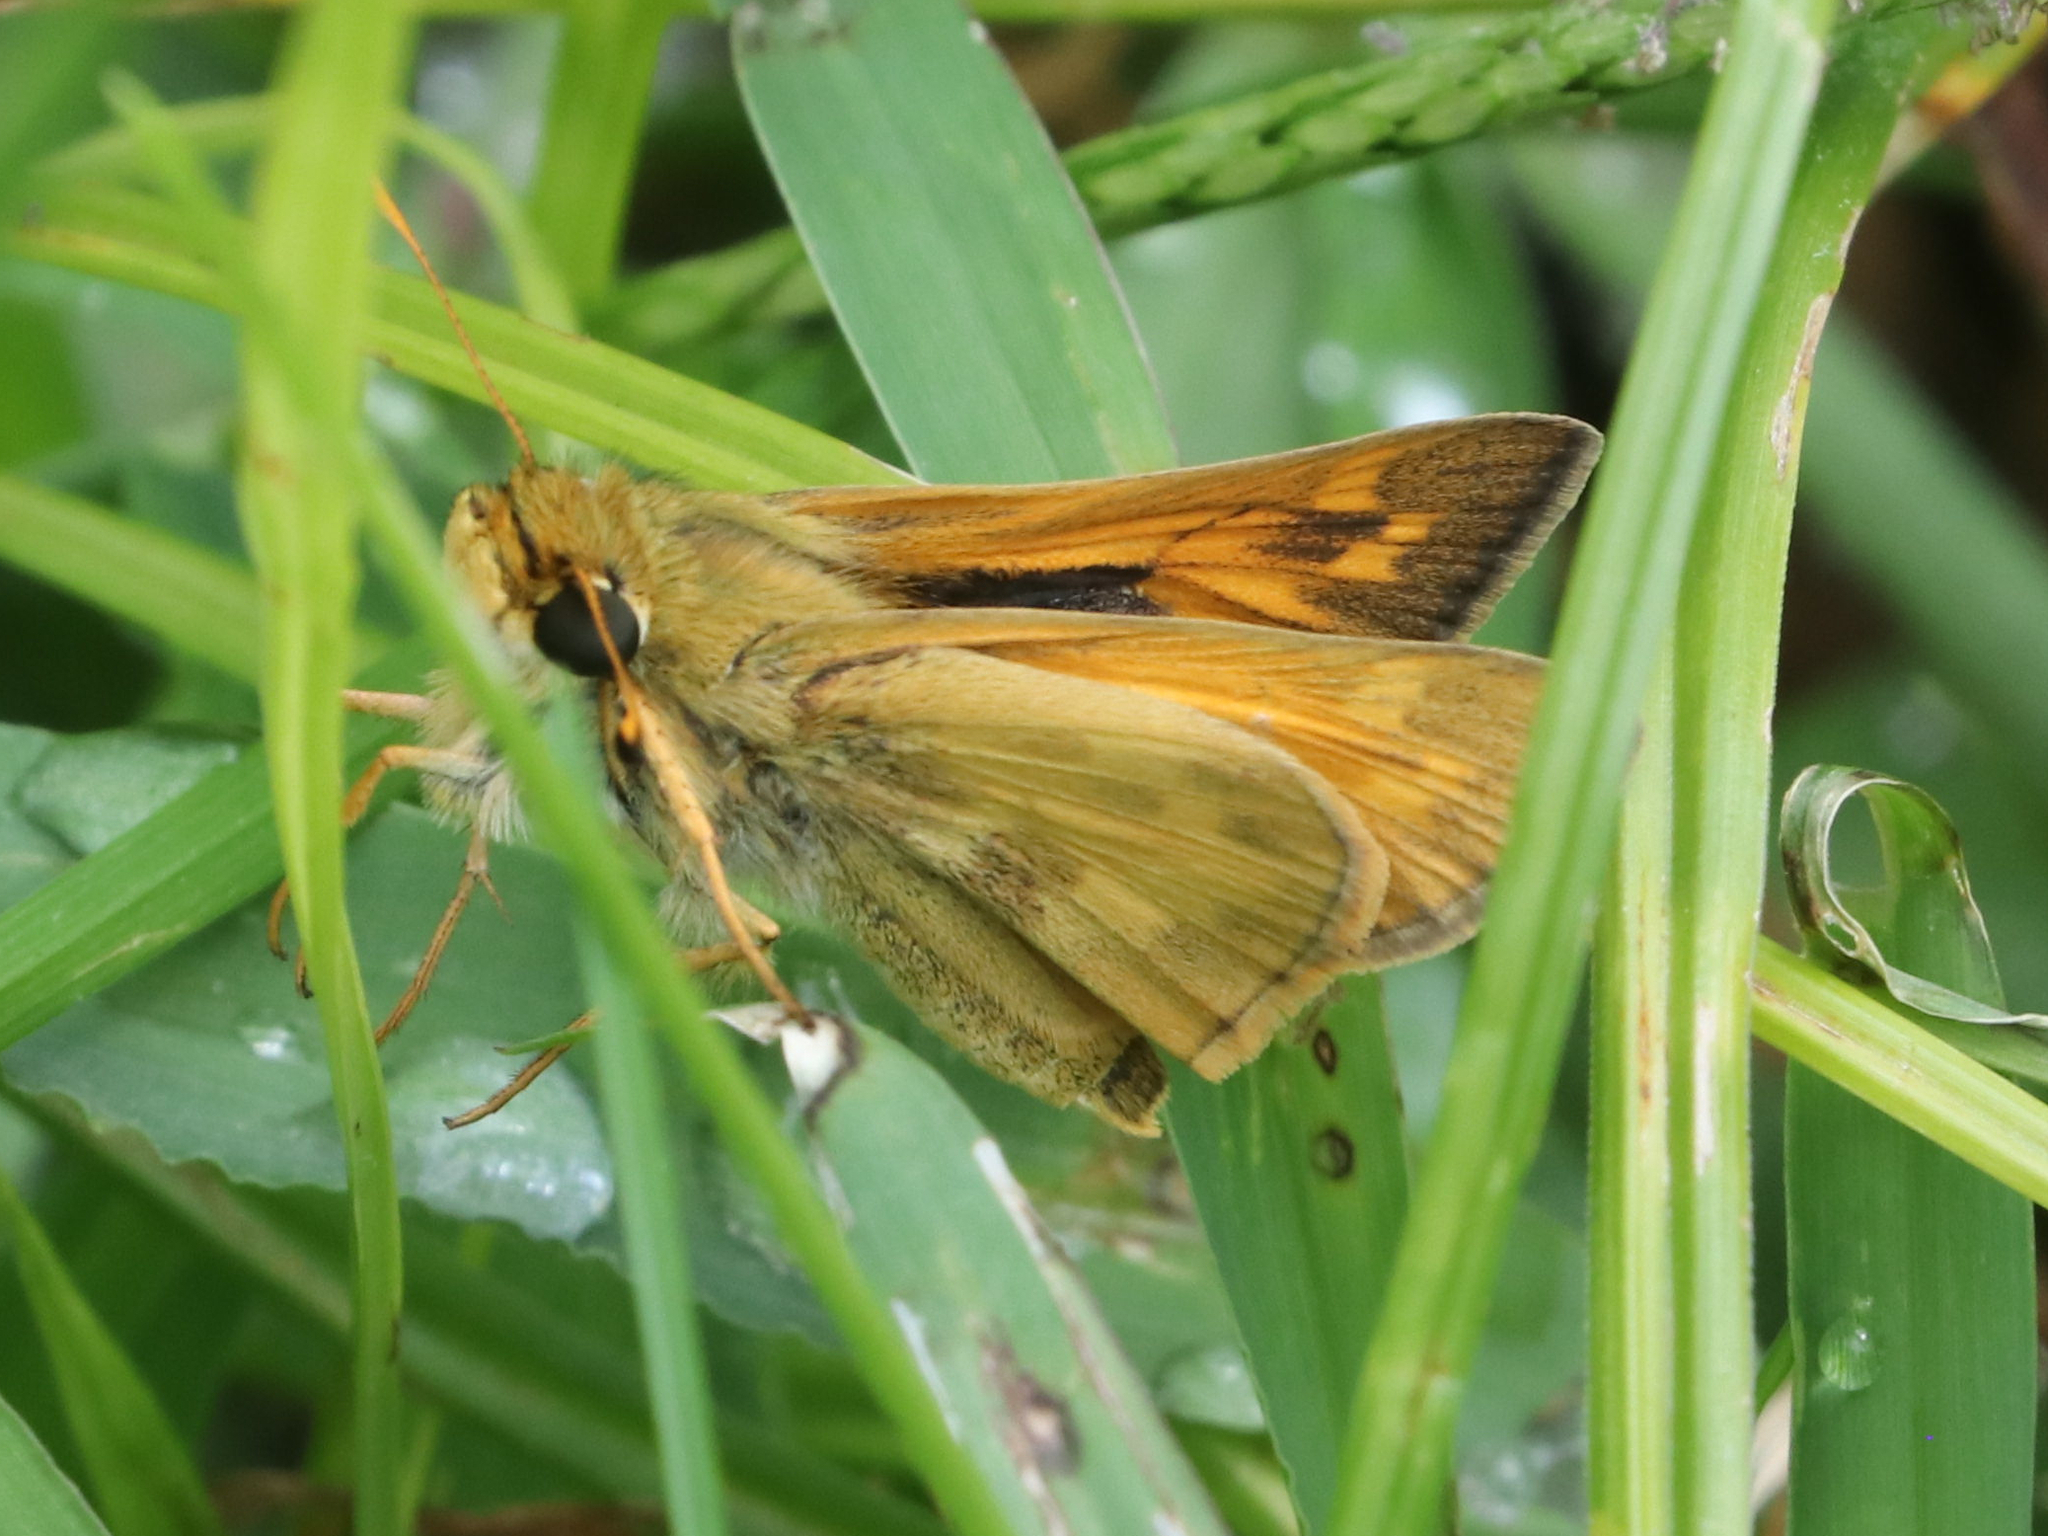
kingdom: Animalia
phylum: Arthropoda
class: Insecta
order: Lepidoptera
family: Hesperiidae
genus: Atalopedes
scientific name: Atalopedes
